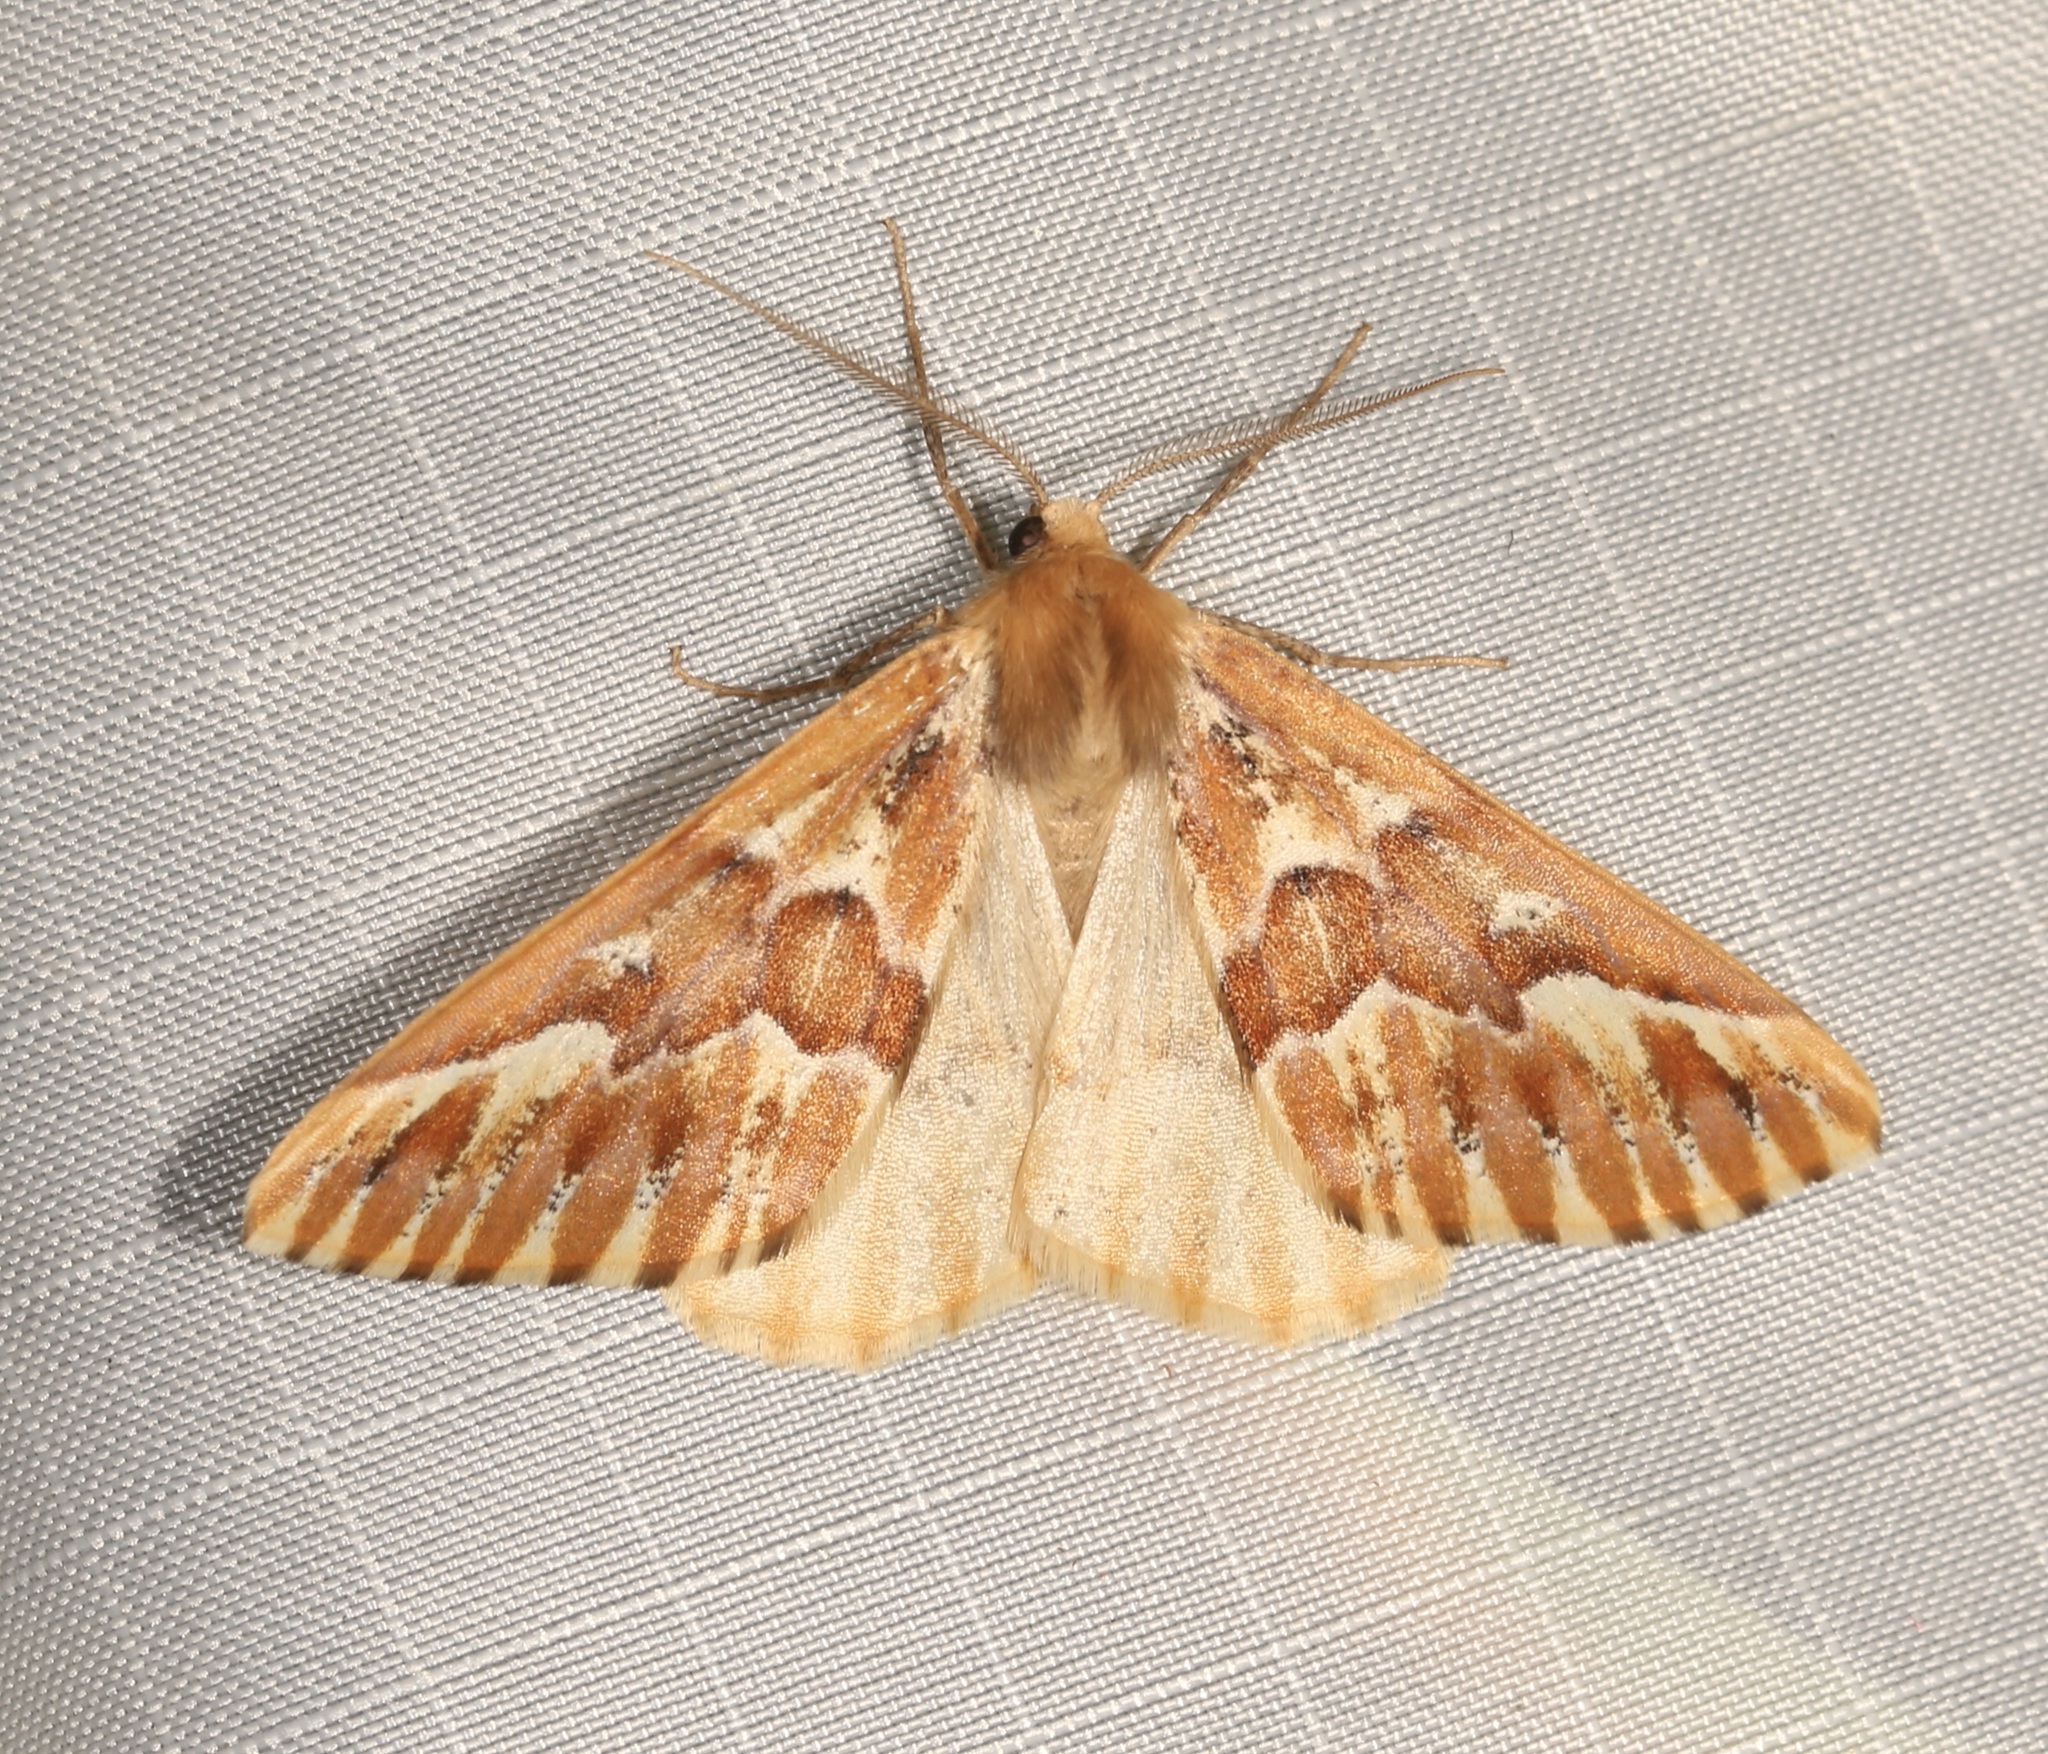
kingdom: Animalia
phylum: Arthropoda
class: Insecta
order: Lepidoptera
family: Geometridae
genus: Caripeta
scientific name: Caripeta aequaliaria
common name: Red girdle moth
